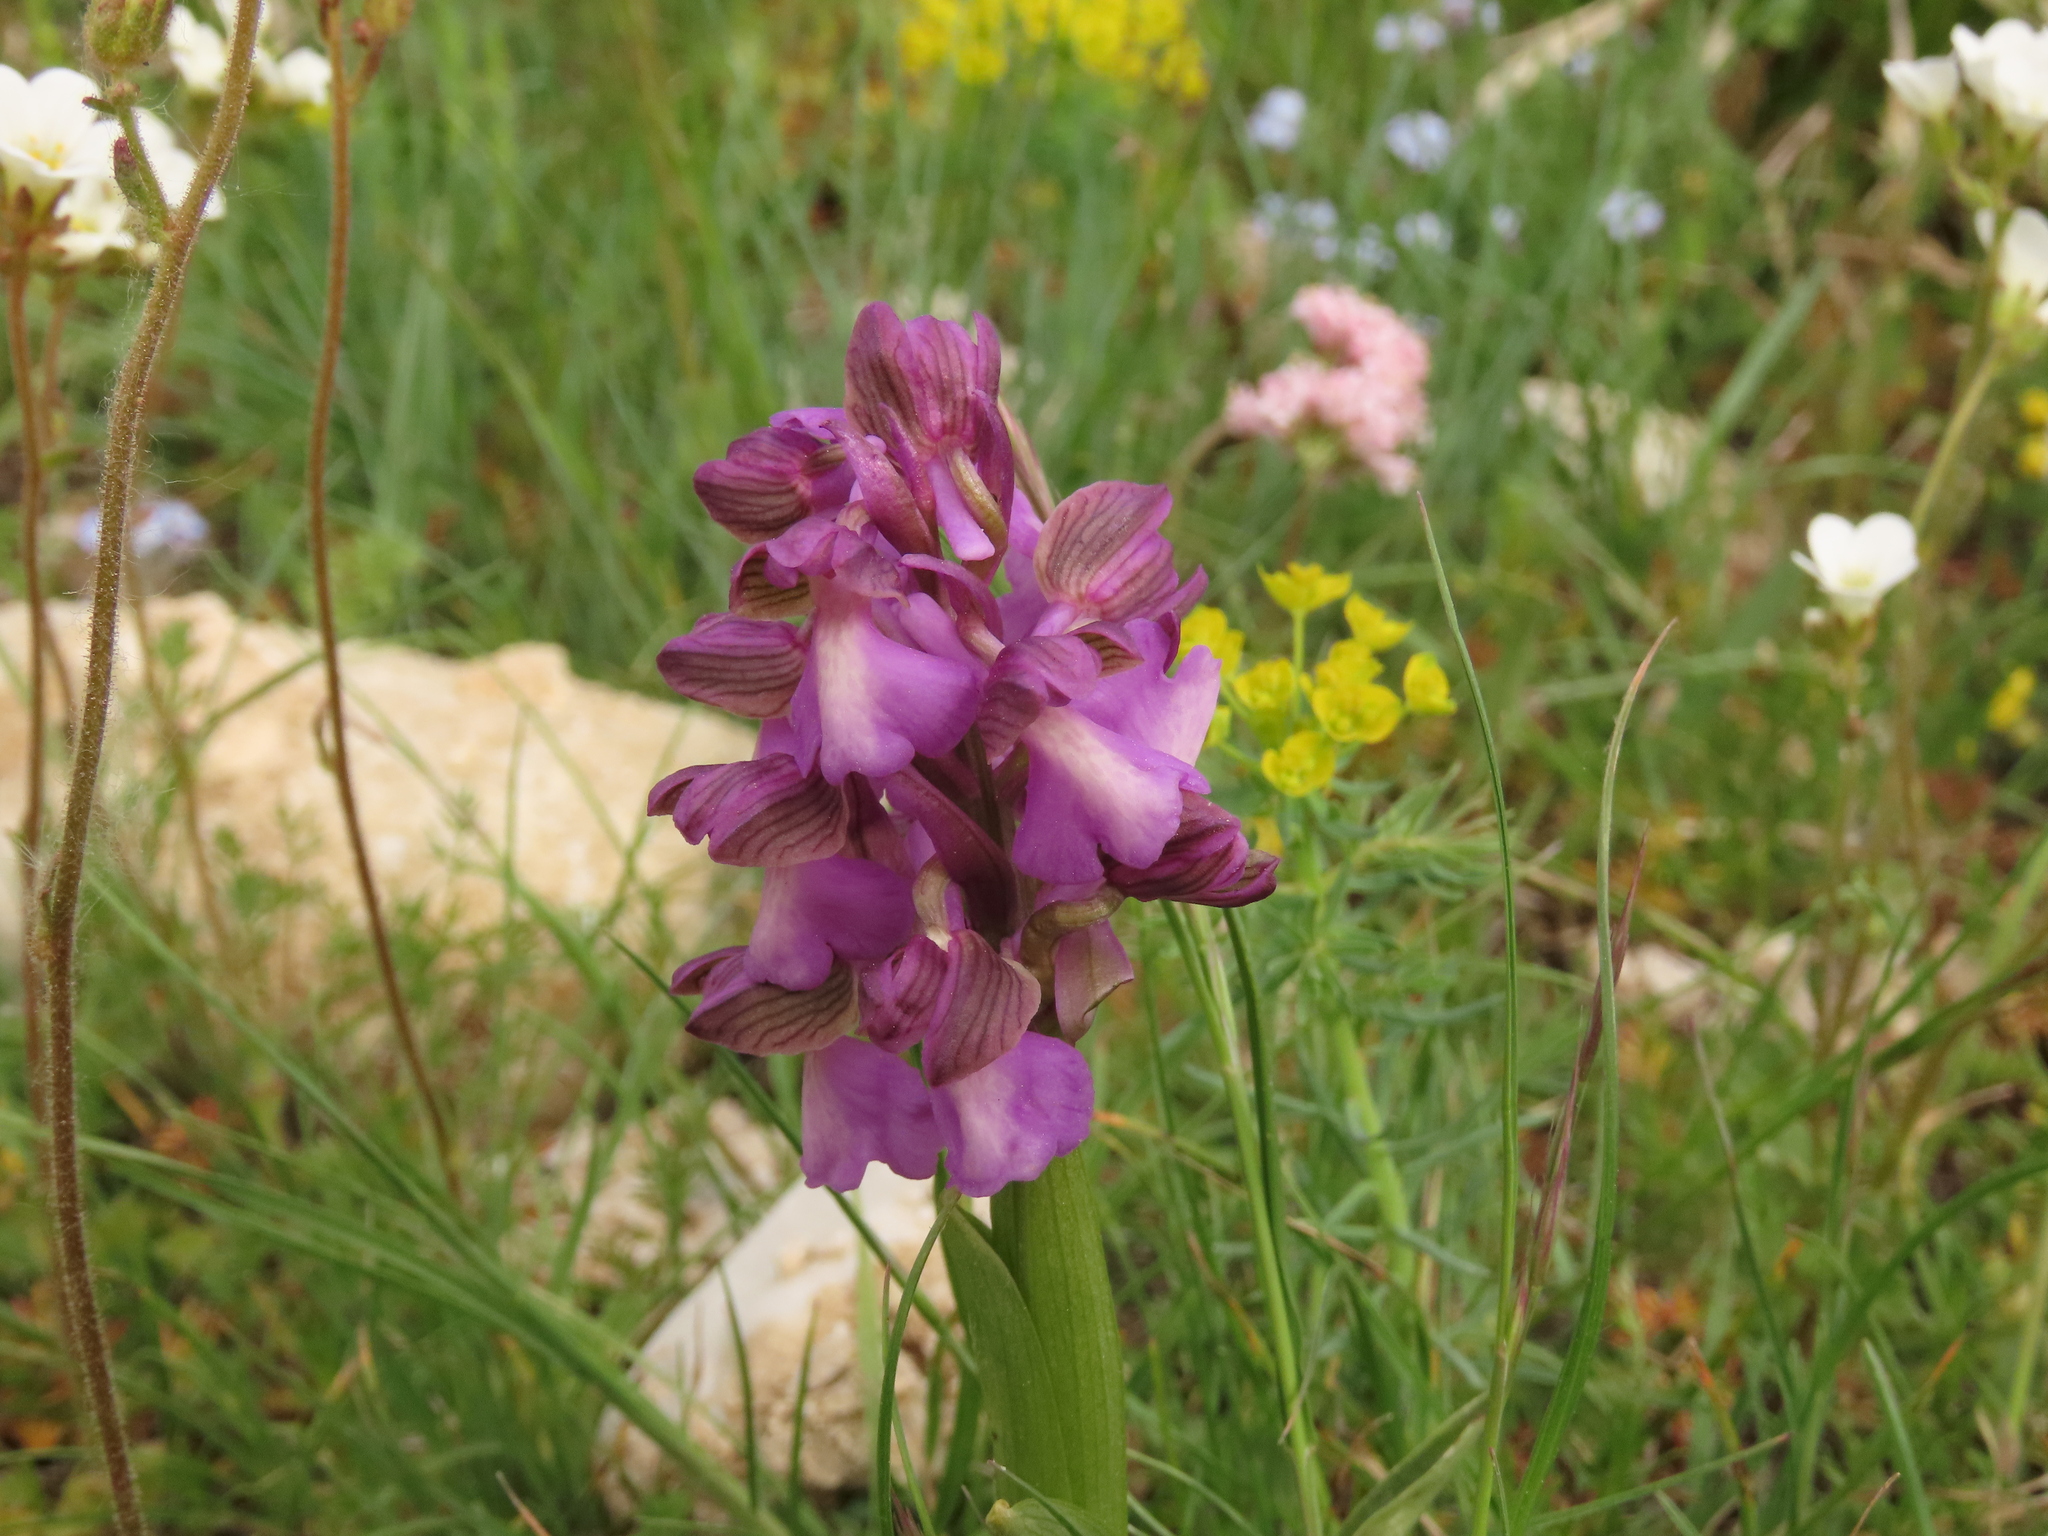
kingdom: Plantae
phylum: Tracheophyta
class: Liliopsida
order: Asparagales
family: Orchidaceae
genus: Anacamptis
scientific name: Anacamptis morio
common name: Green-winged orchid
